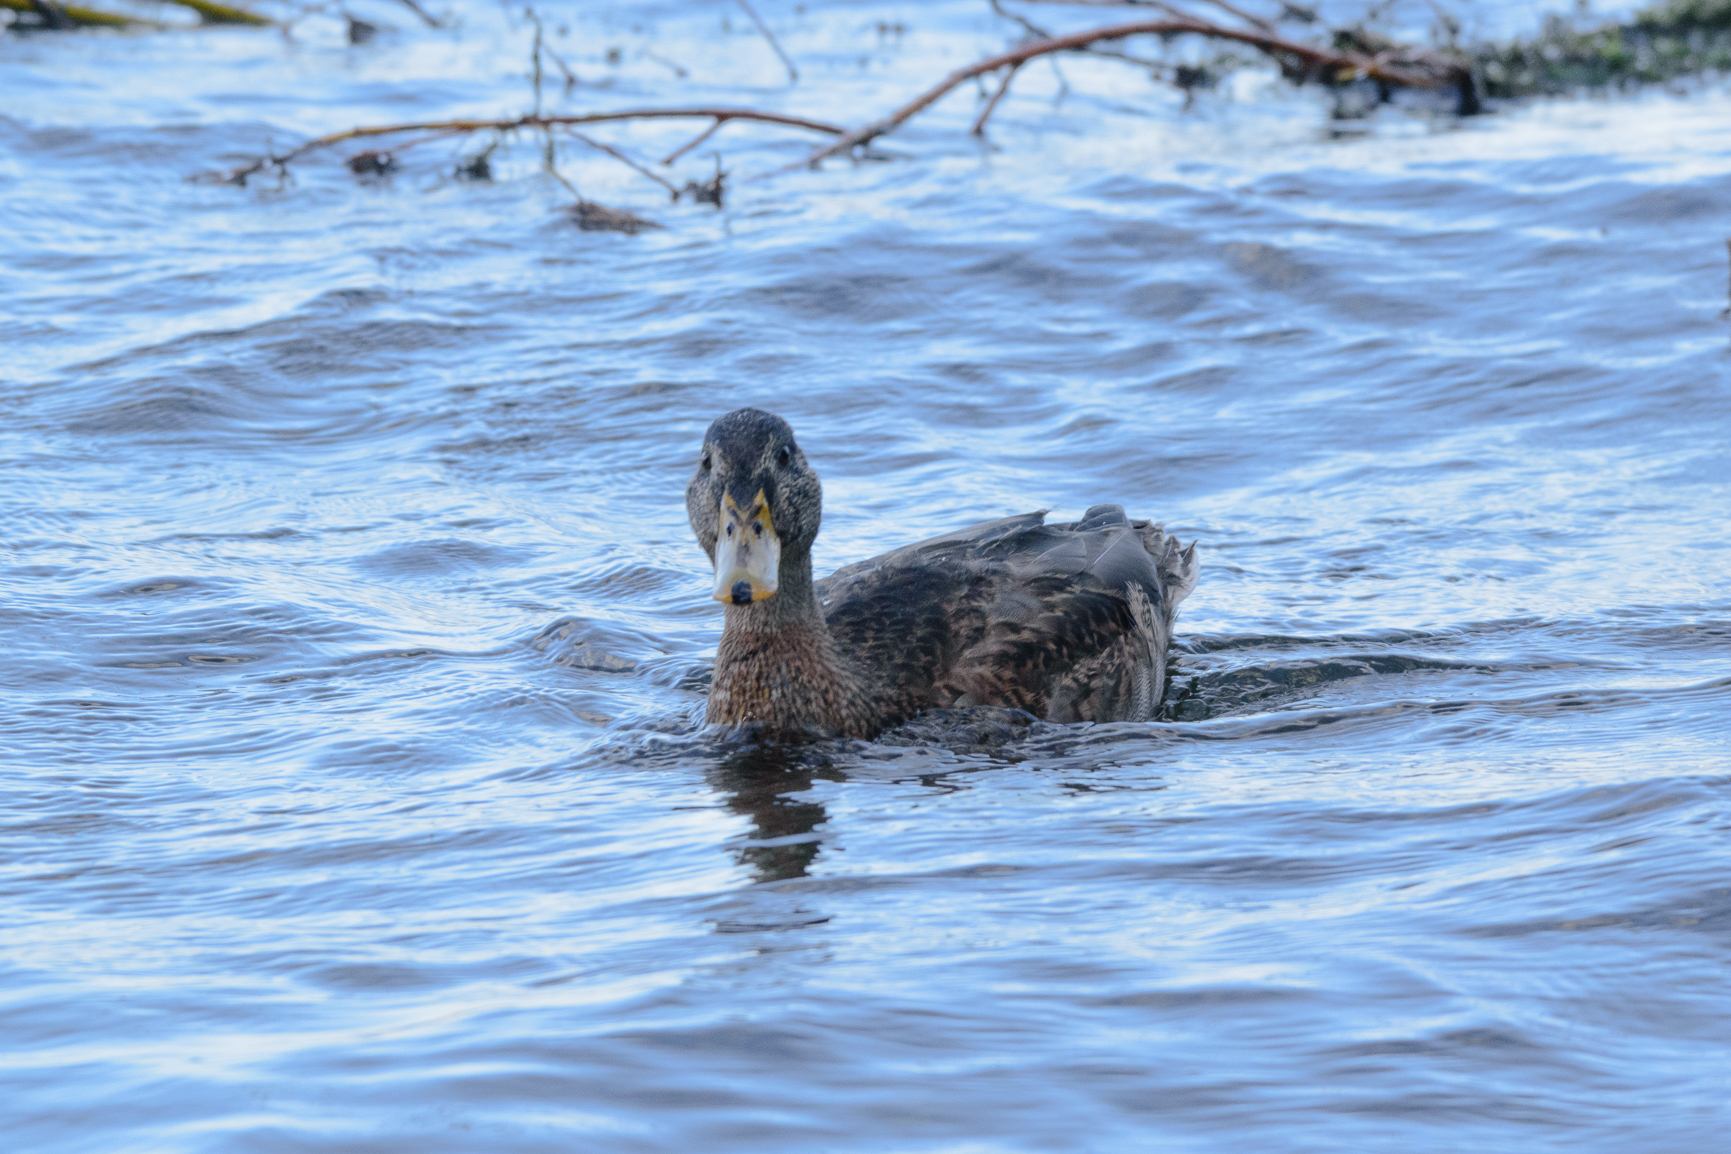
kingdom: Animalia
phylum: Chordata
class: Aves
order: Anseriformes
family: Anatidae
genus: Anas
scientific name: Anas platyrhynchos
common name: Mallard
